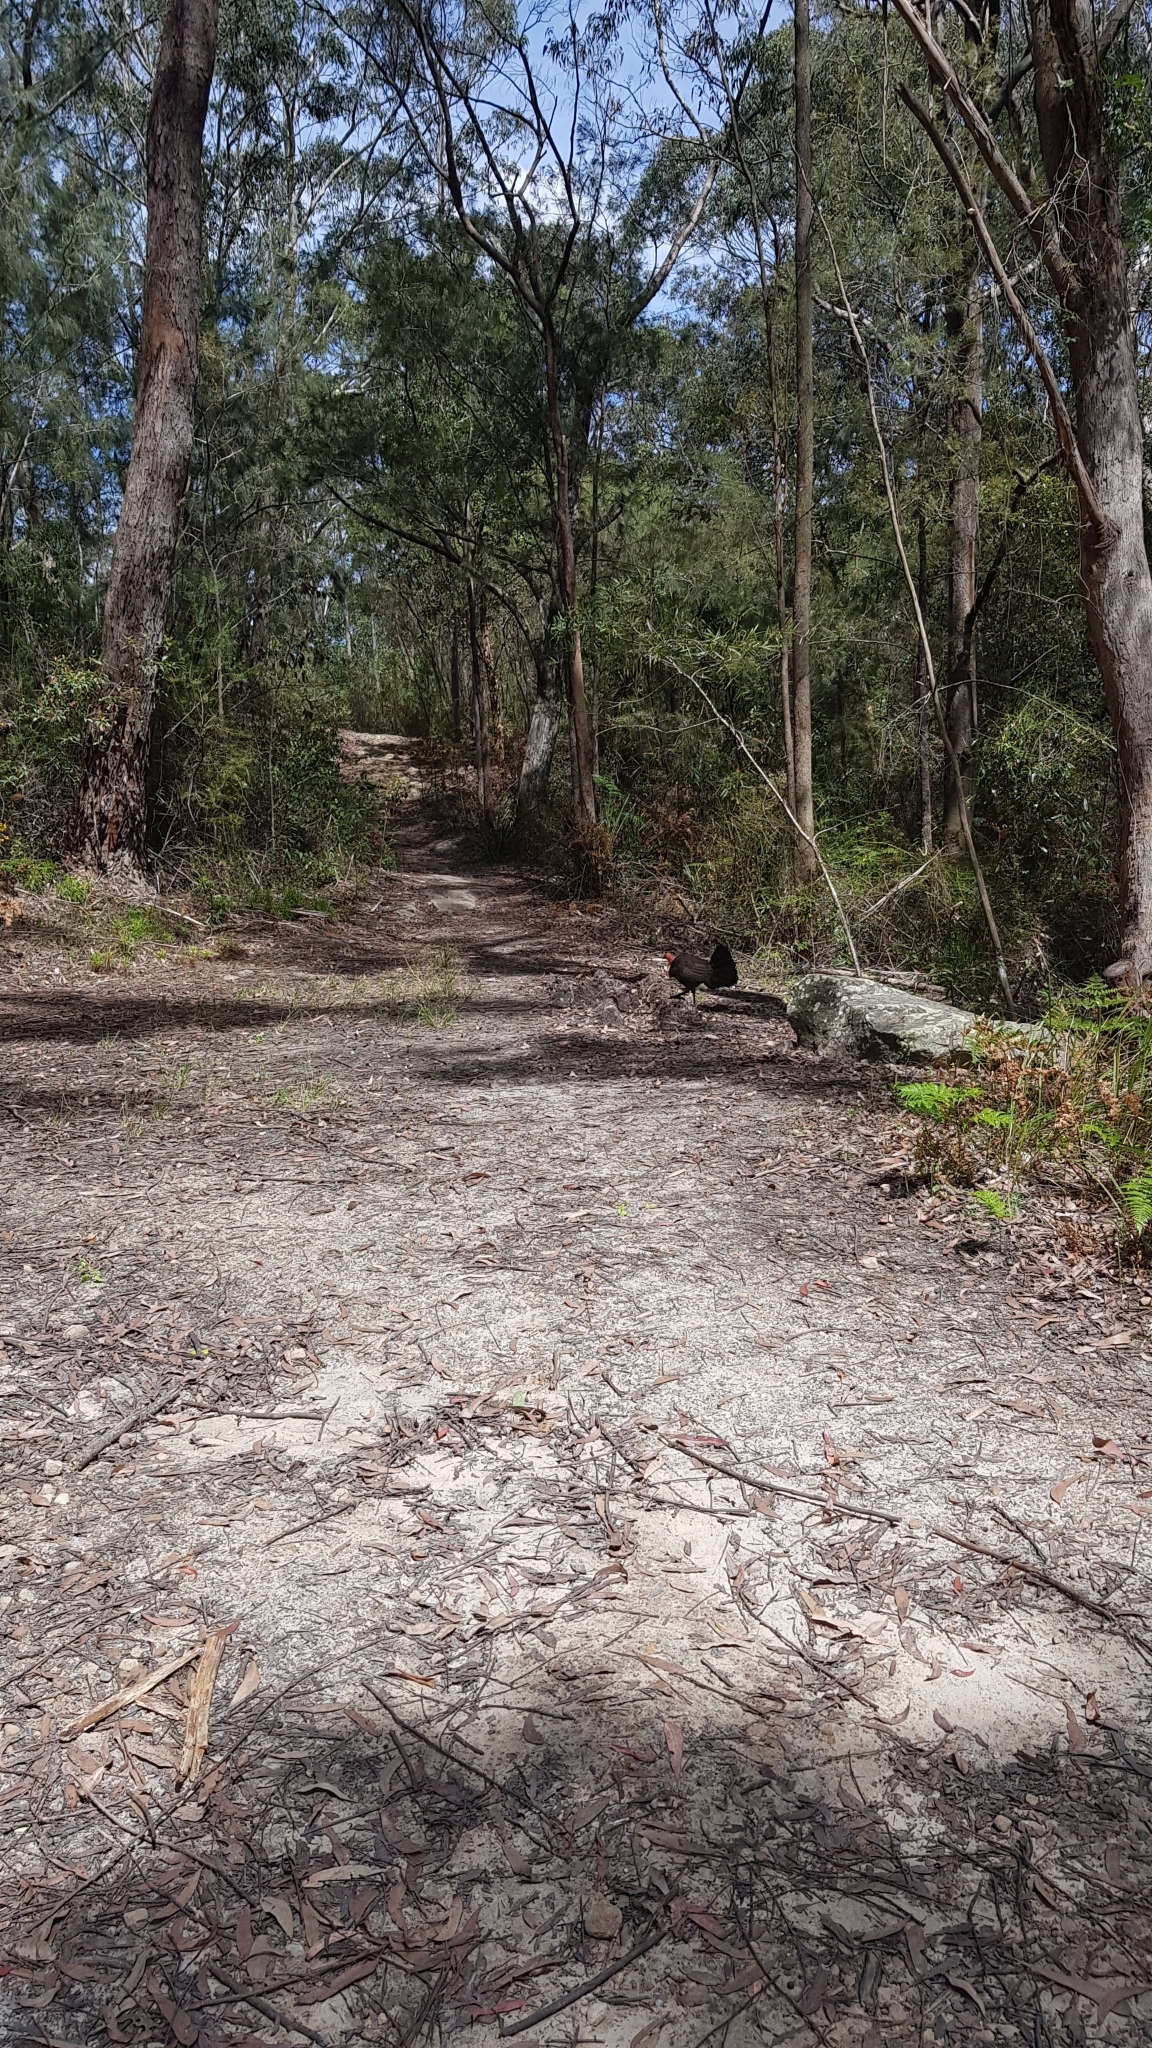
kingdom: Animalia
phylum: Chordata
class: Aves
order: Galliformes
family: Megapodiidae
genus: Alectura
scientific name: Alectura lathami
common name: Australian brushturkey
